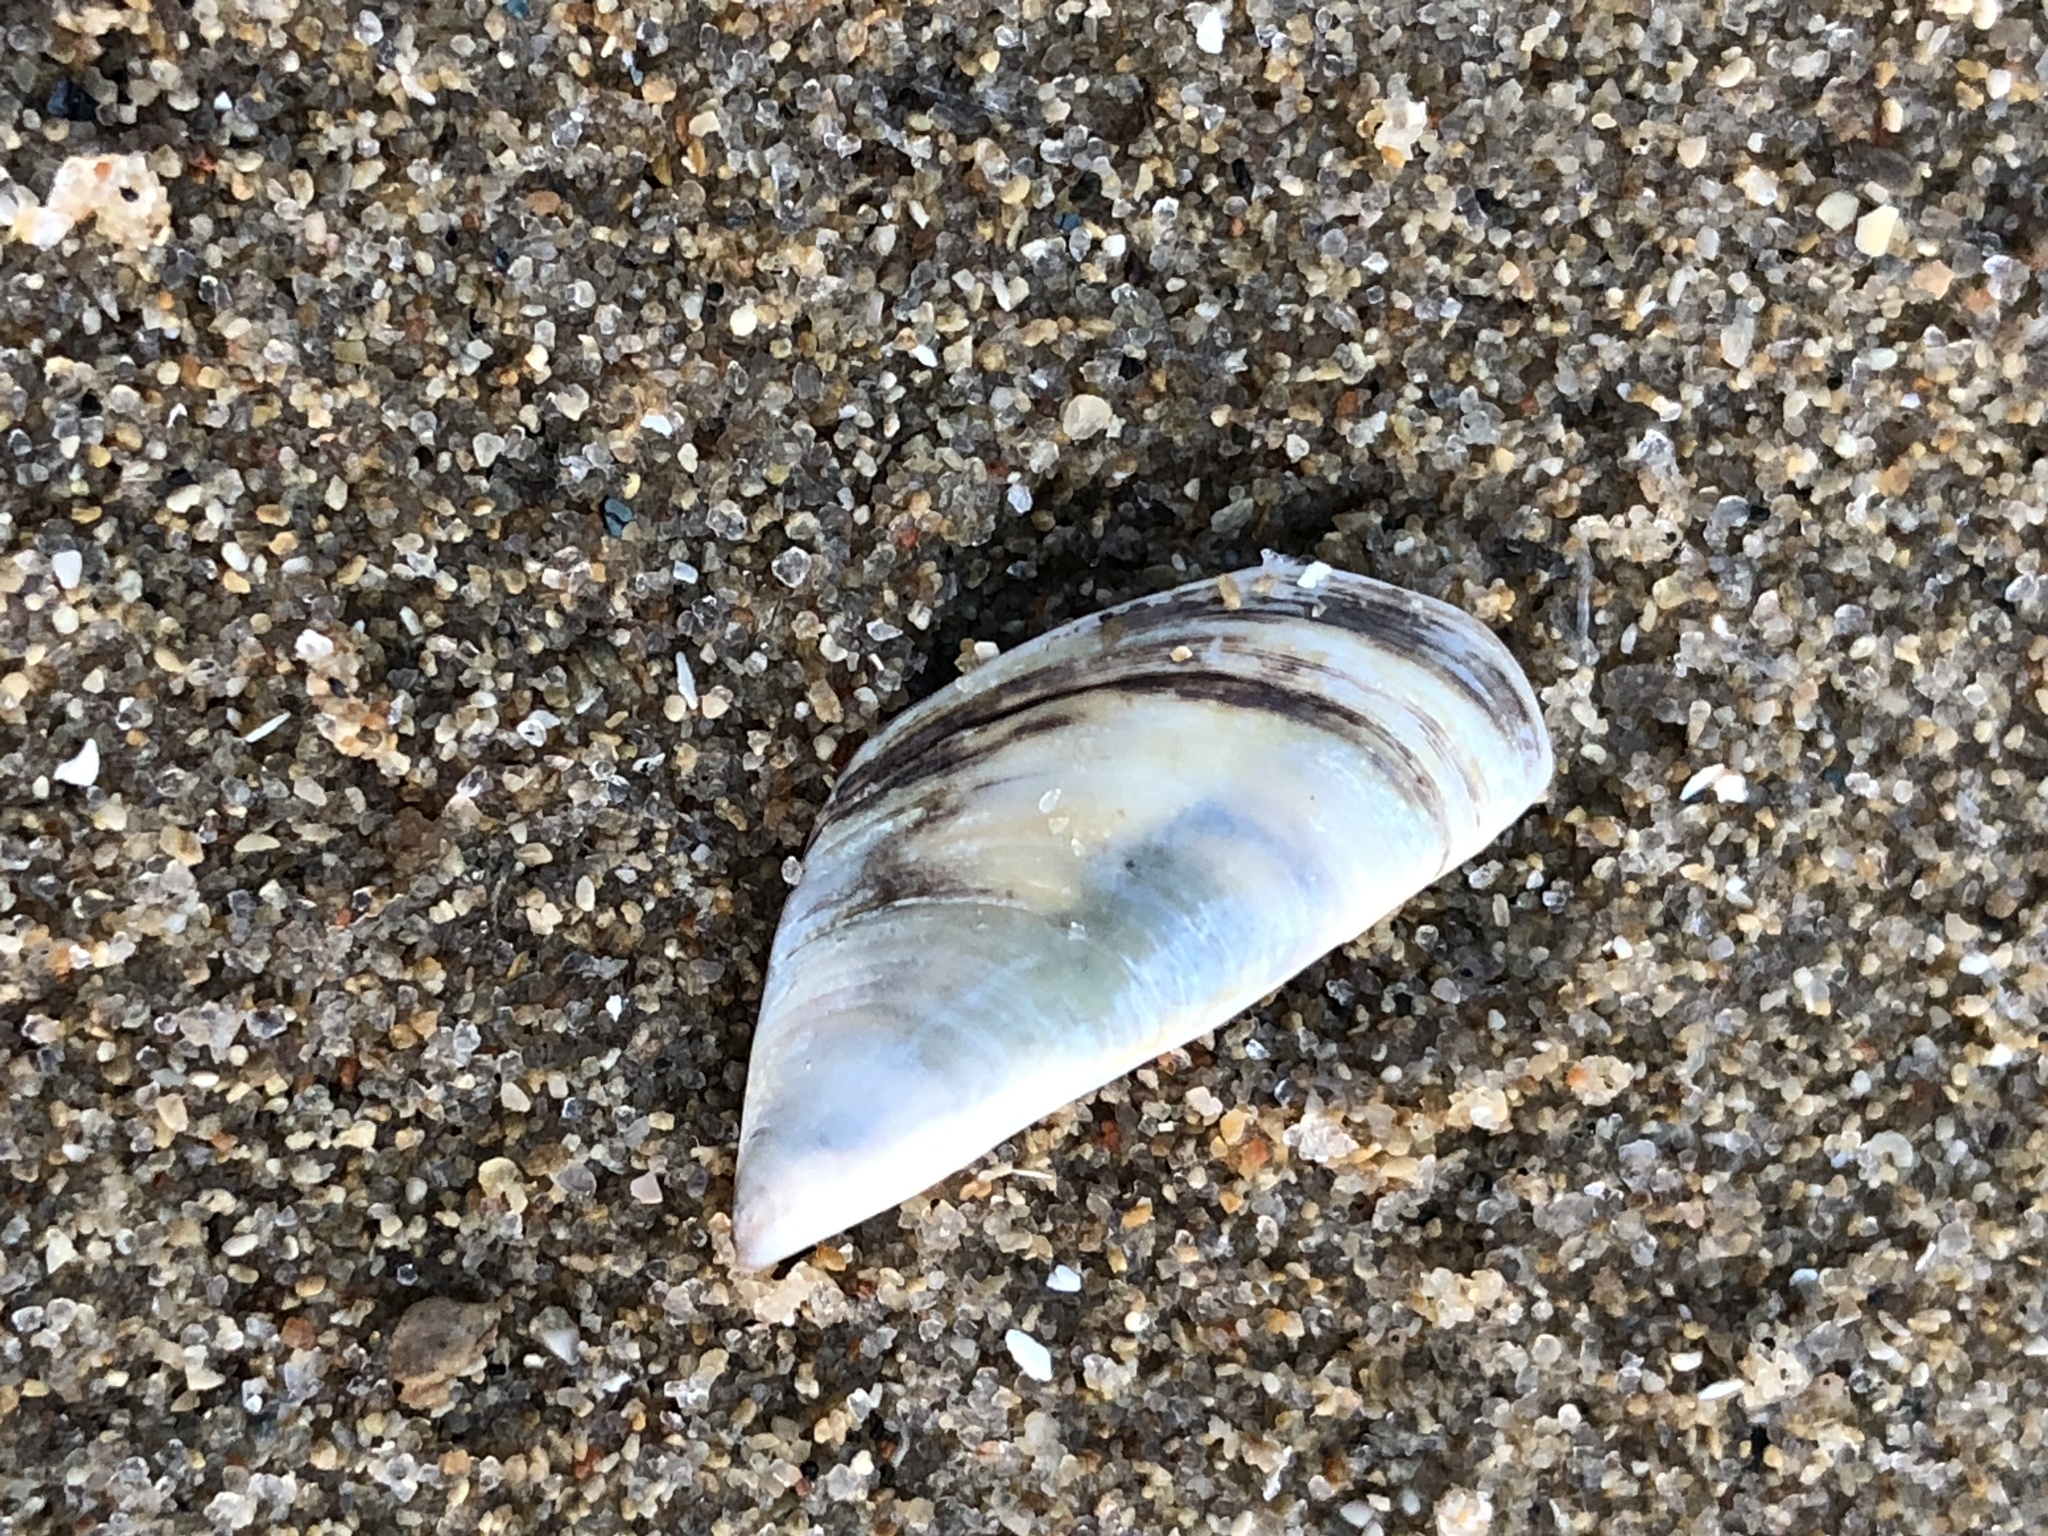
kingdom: Animalia
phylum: Mollusca
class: Bivalvia
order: Myida
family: Dreissenidae
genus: Dreissena
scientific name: Dreissena polymorpha
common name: Zebra mussel
